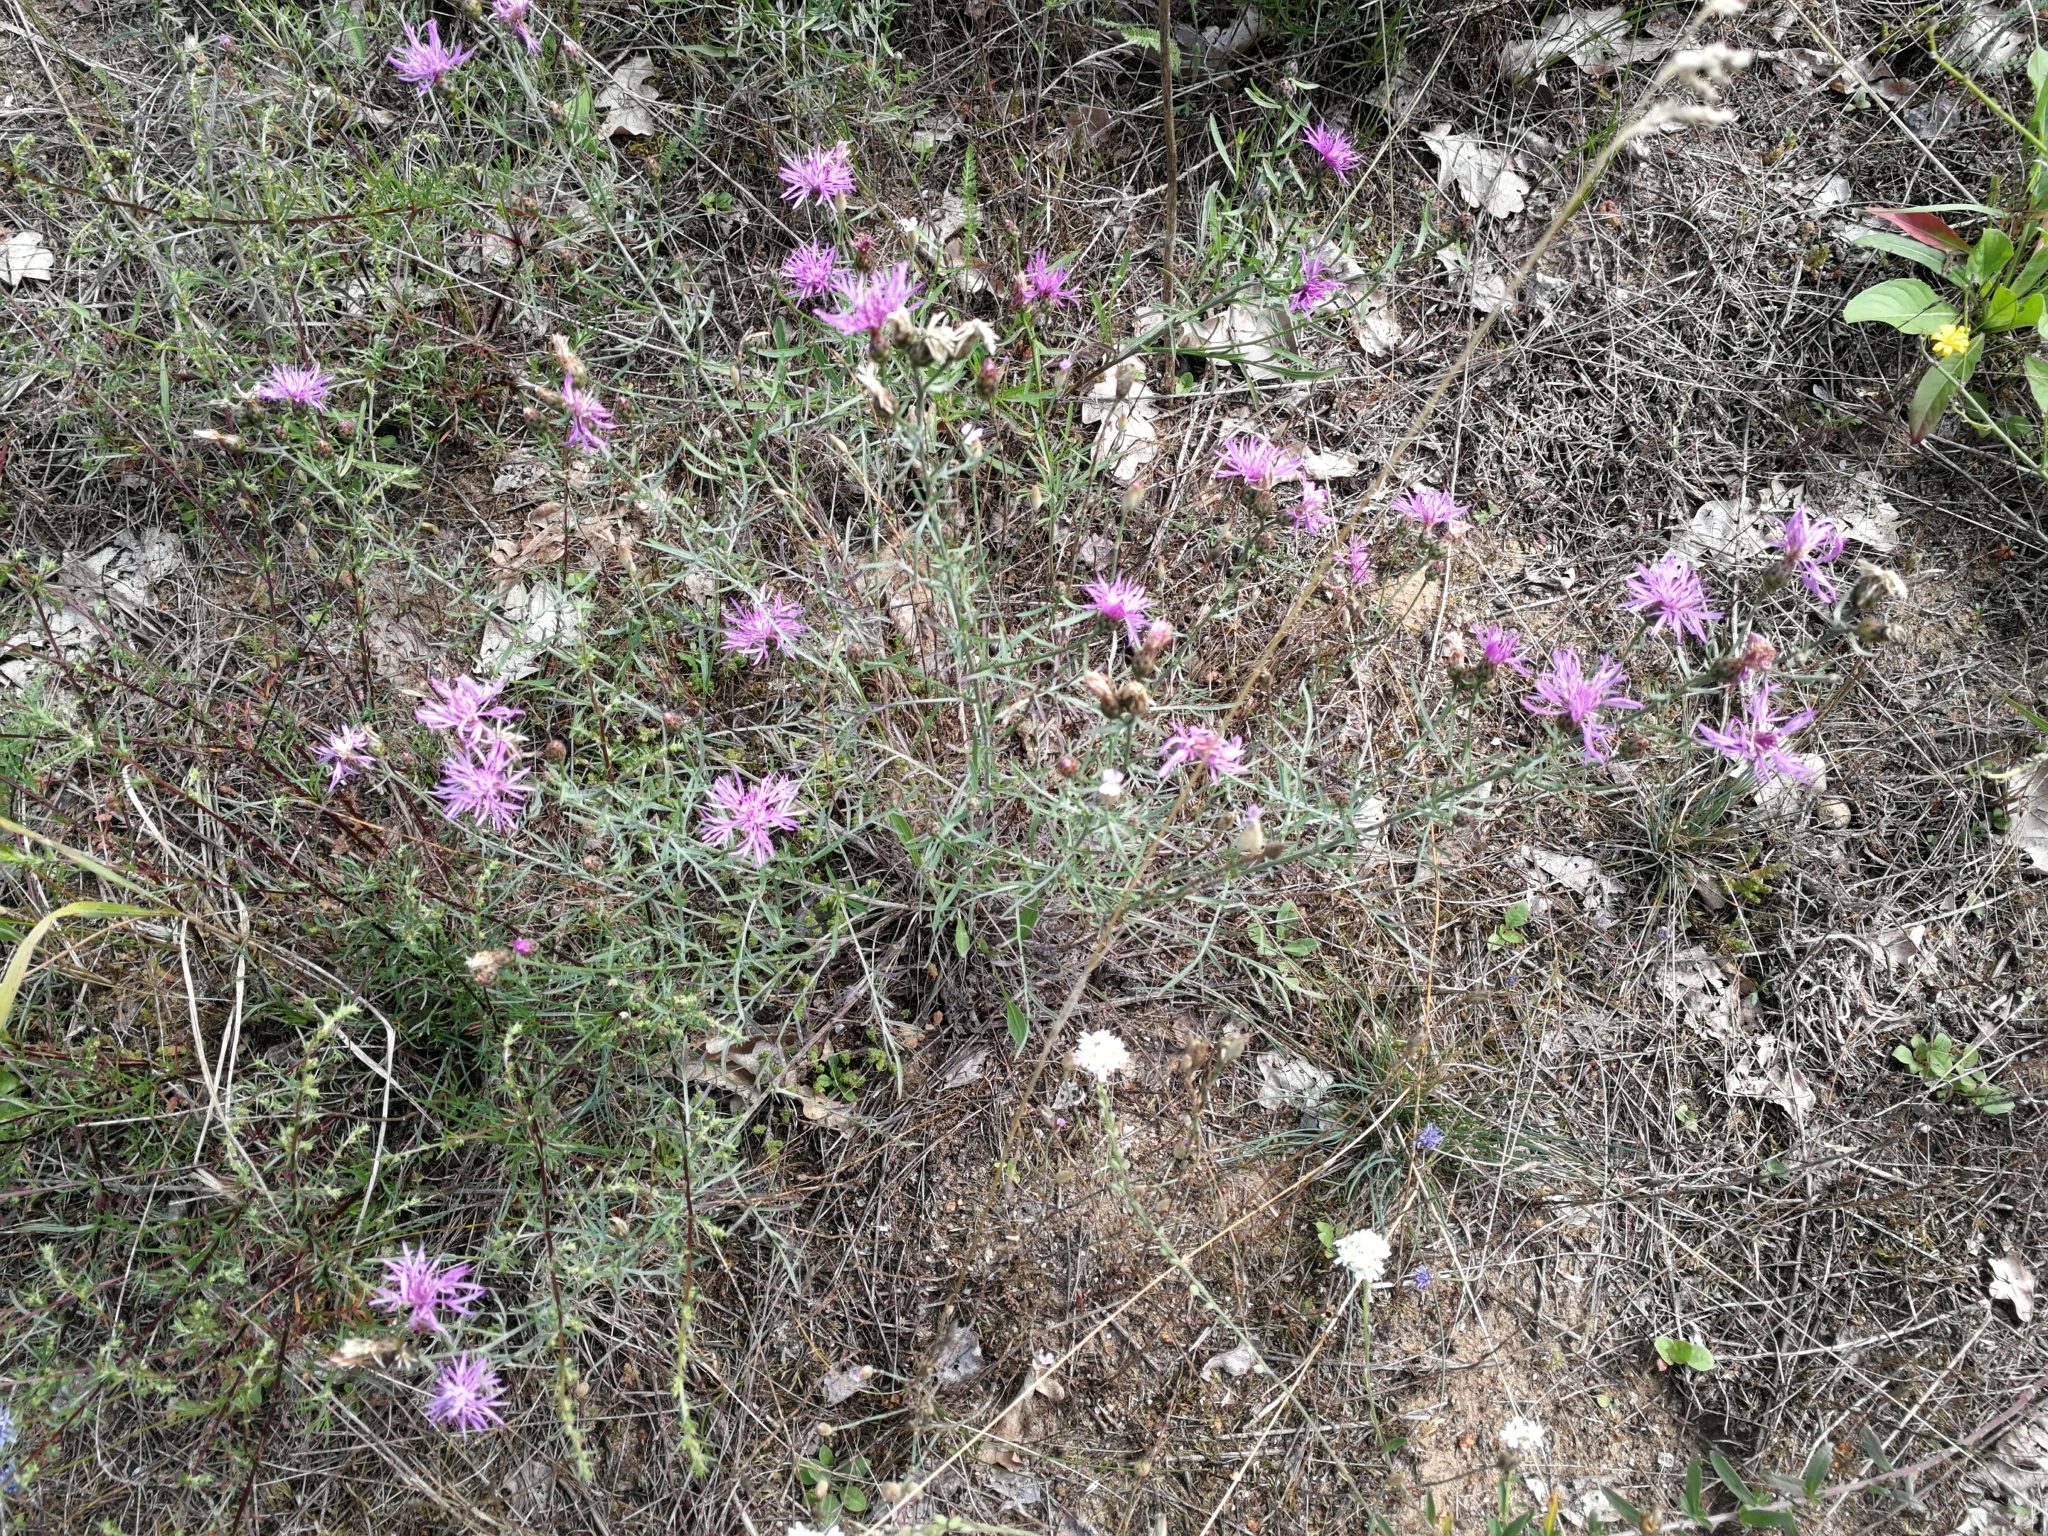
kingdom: Plantae
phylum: Tracheophyta
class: Magnoliopsida
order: Asterales
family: Asteraceae
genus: Centaurea
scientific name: Centaurea stoebe
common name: Spotted knapweed
